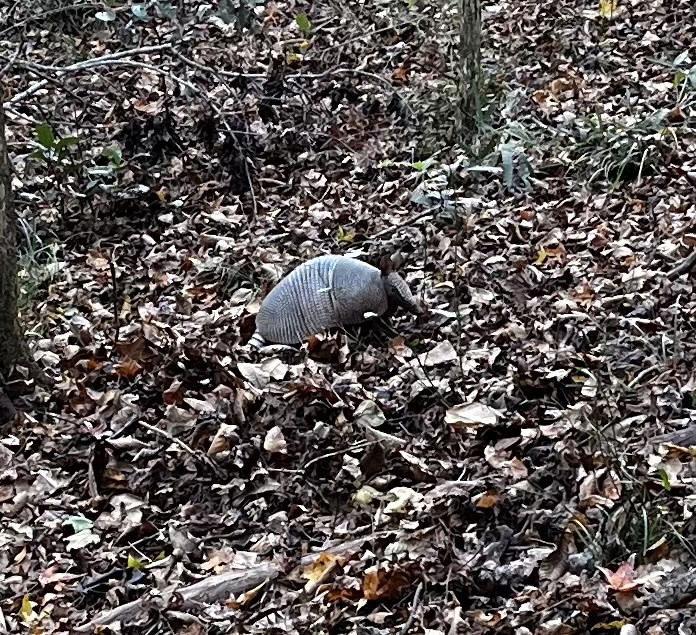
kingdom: Animalia
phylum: Chordata
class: Mammalia
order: Cingulata
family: Dasypodidae
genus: Dasypus
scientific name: Dasypus novemcinctus
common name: Nine-banded armadillo
